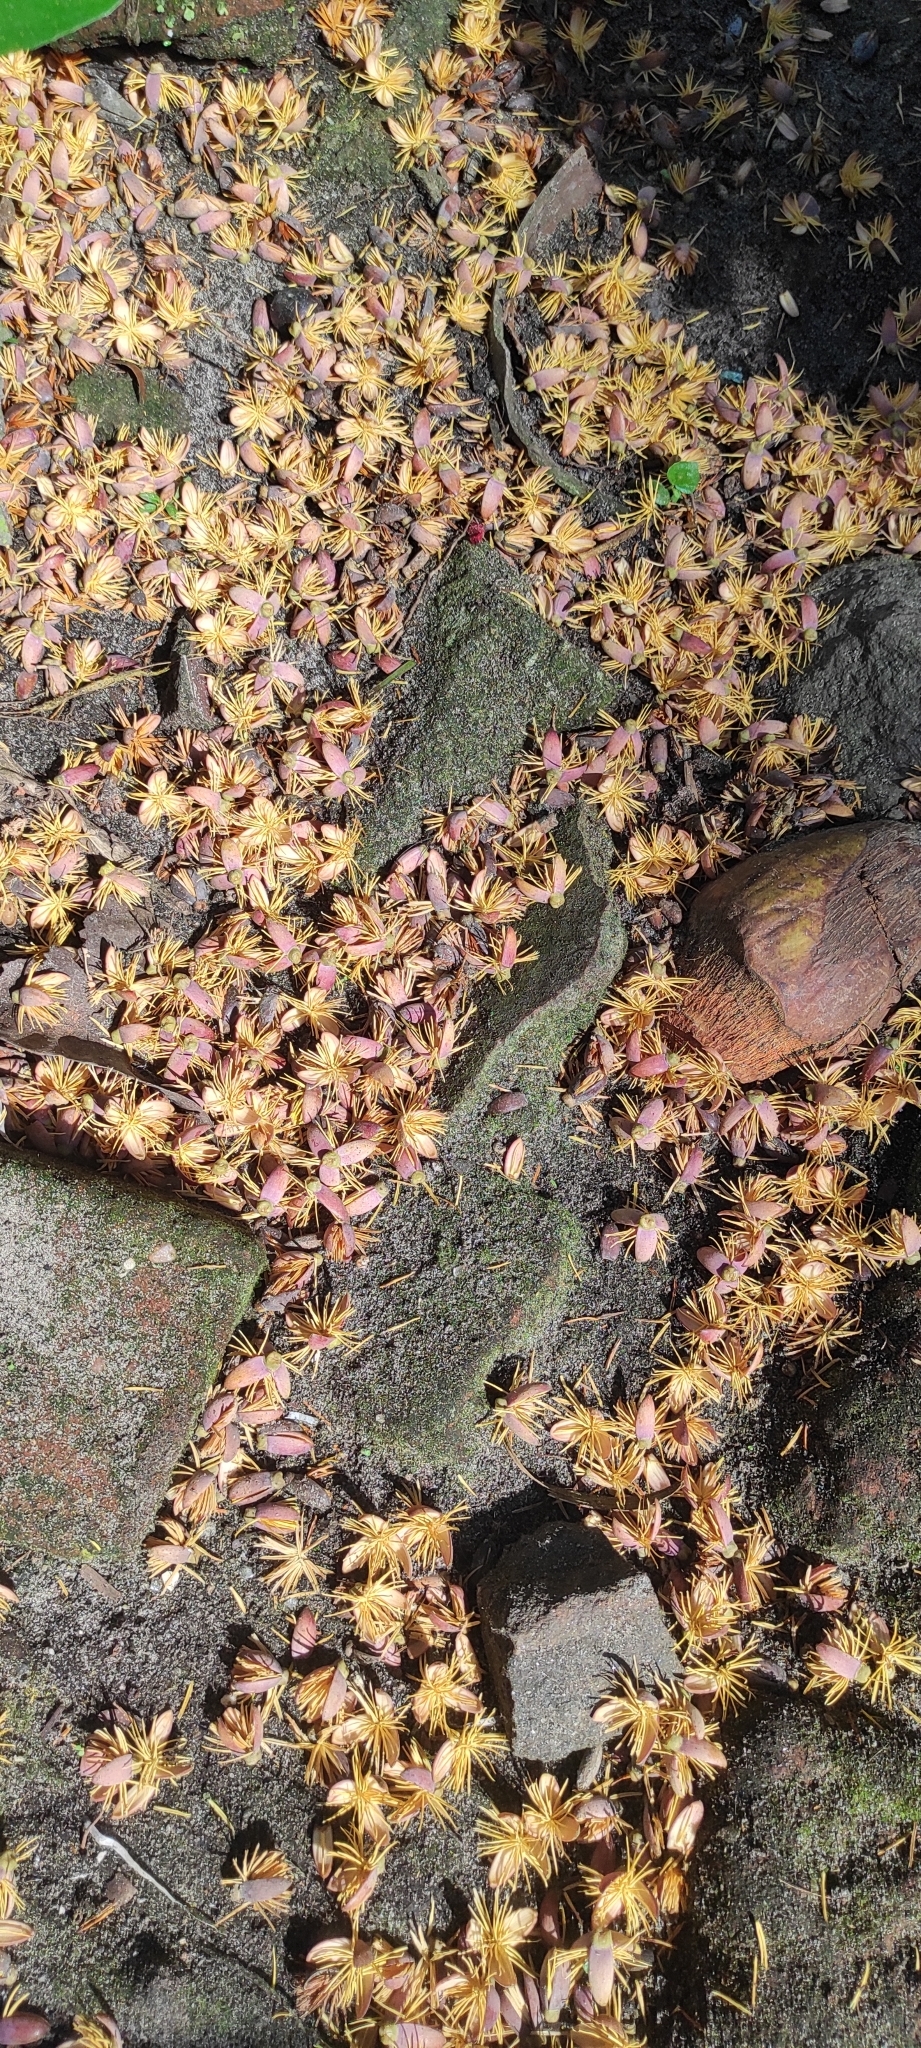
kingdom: Plantae
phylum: Tracheophyta
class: Liliopsida
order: Arecales
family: Arecaceae
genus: Caryota
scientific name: Caryota urens
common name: Jaggery palm
